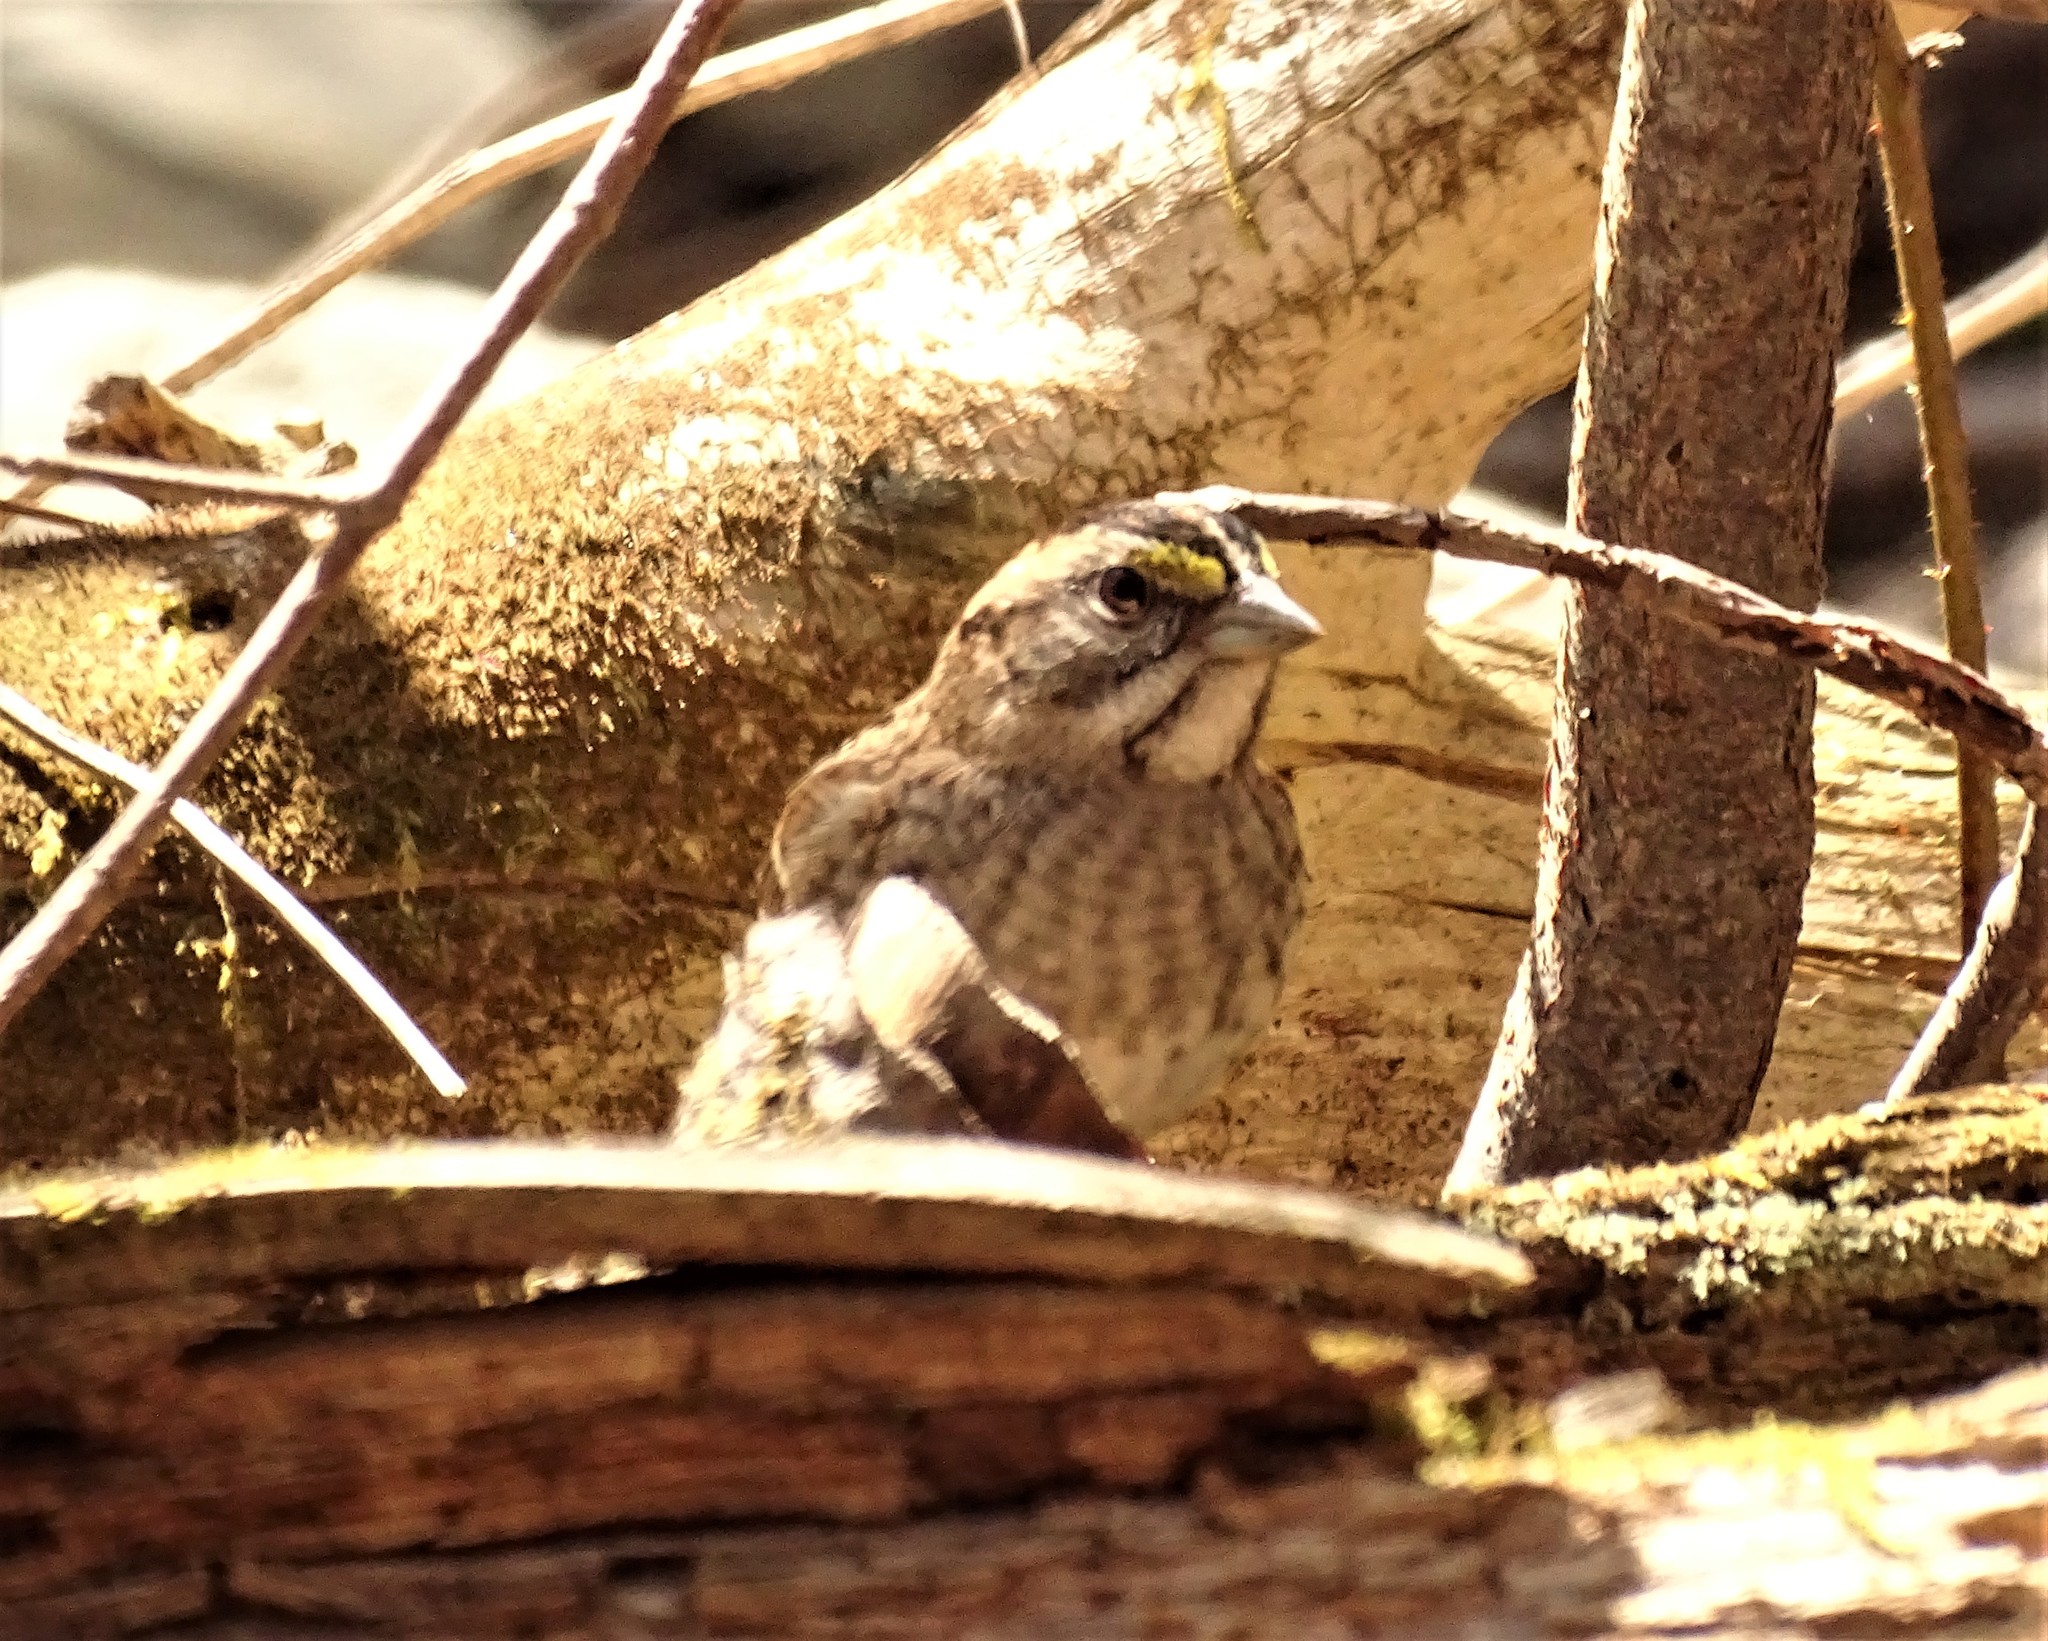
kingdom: Animalia
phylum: Chordata
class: Aves
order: Passeriformes
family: Passerellidae
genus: Zonotrichia
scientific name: Zonotrichia albicollis
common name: White-throated sparrow
